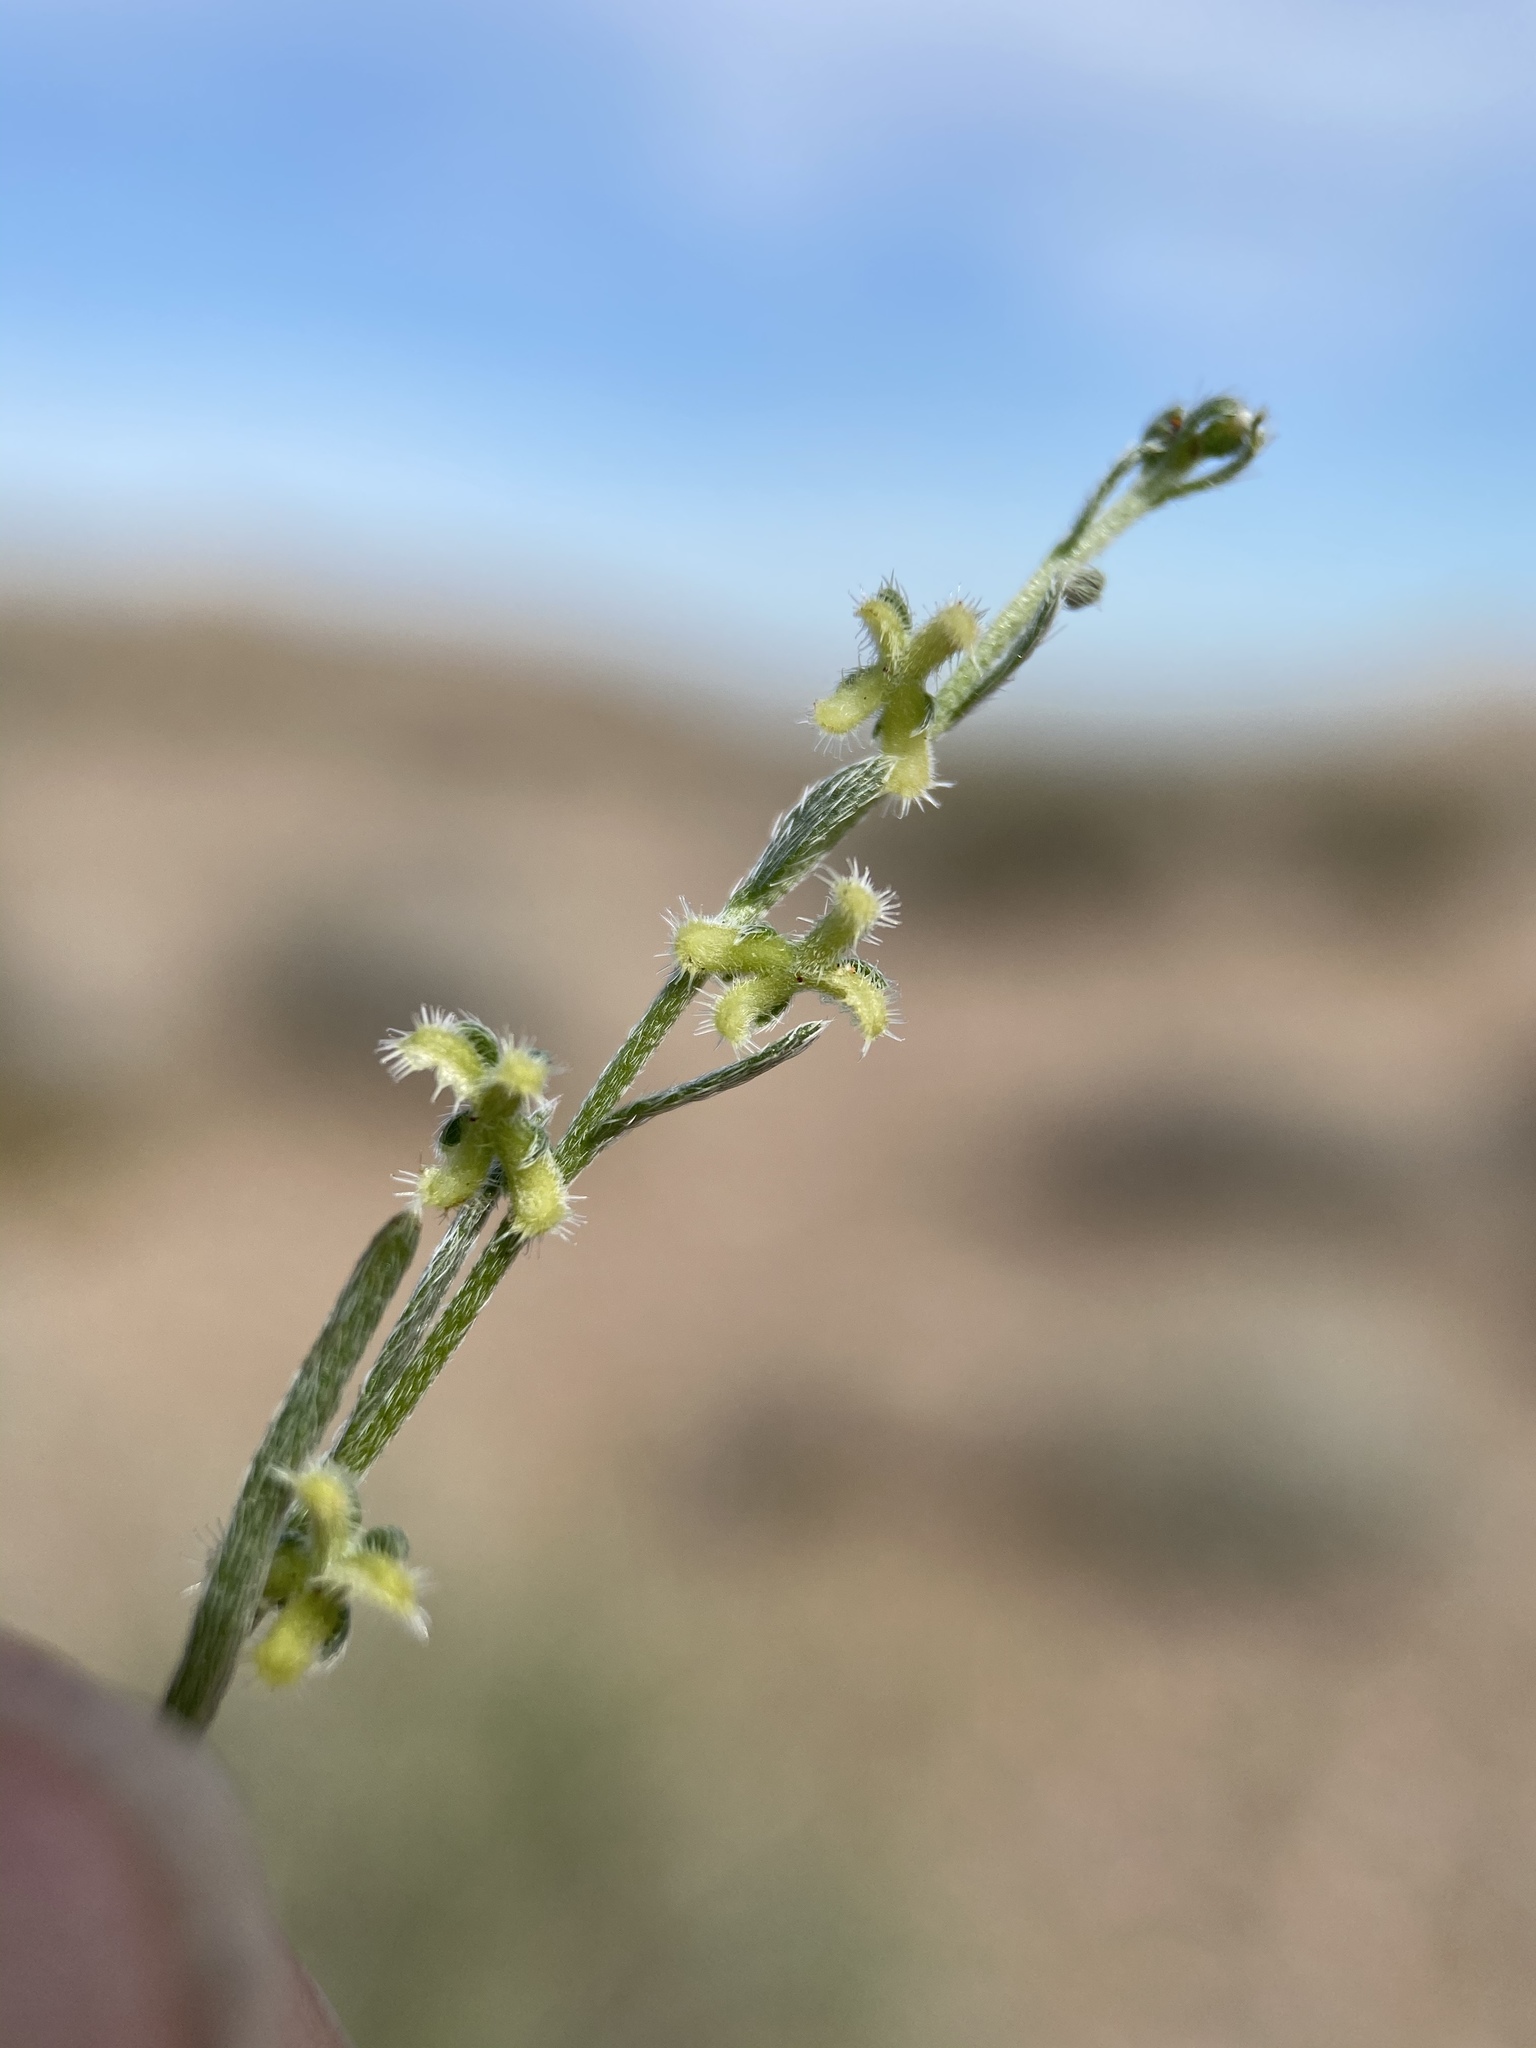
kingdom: Plantae
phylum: Tracheophyta
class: Magnoliopsida
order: Boraginales
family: Boraginaceae
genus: Pectocarya
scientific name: Pectocarya heterocarpa
